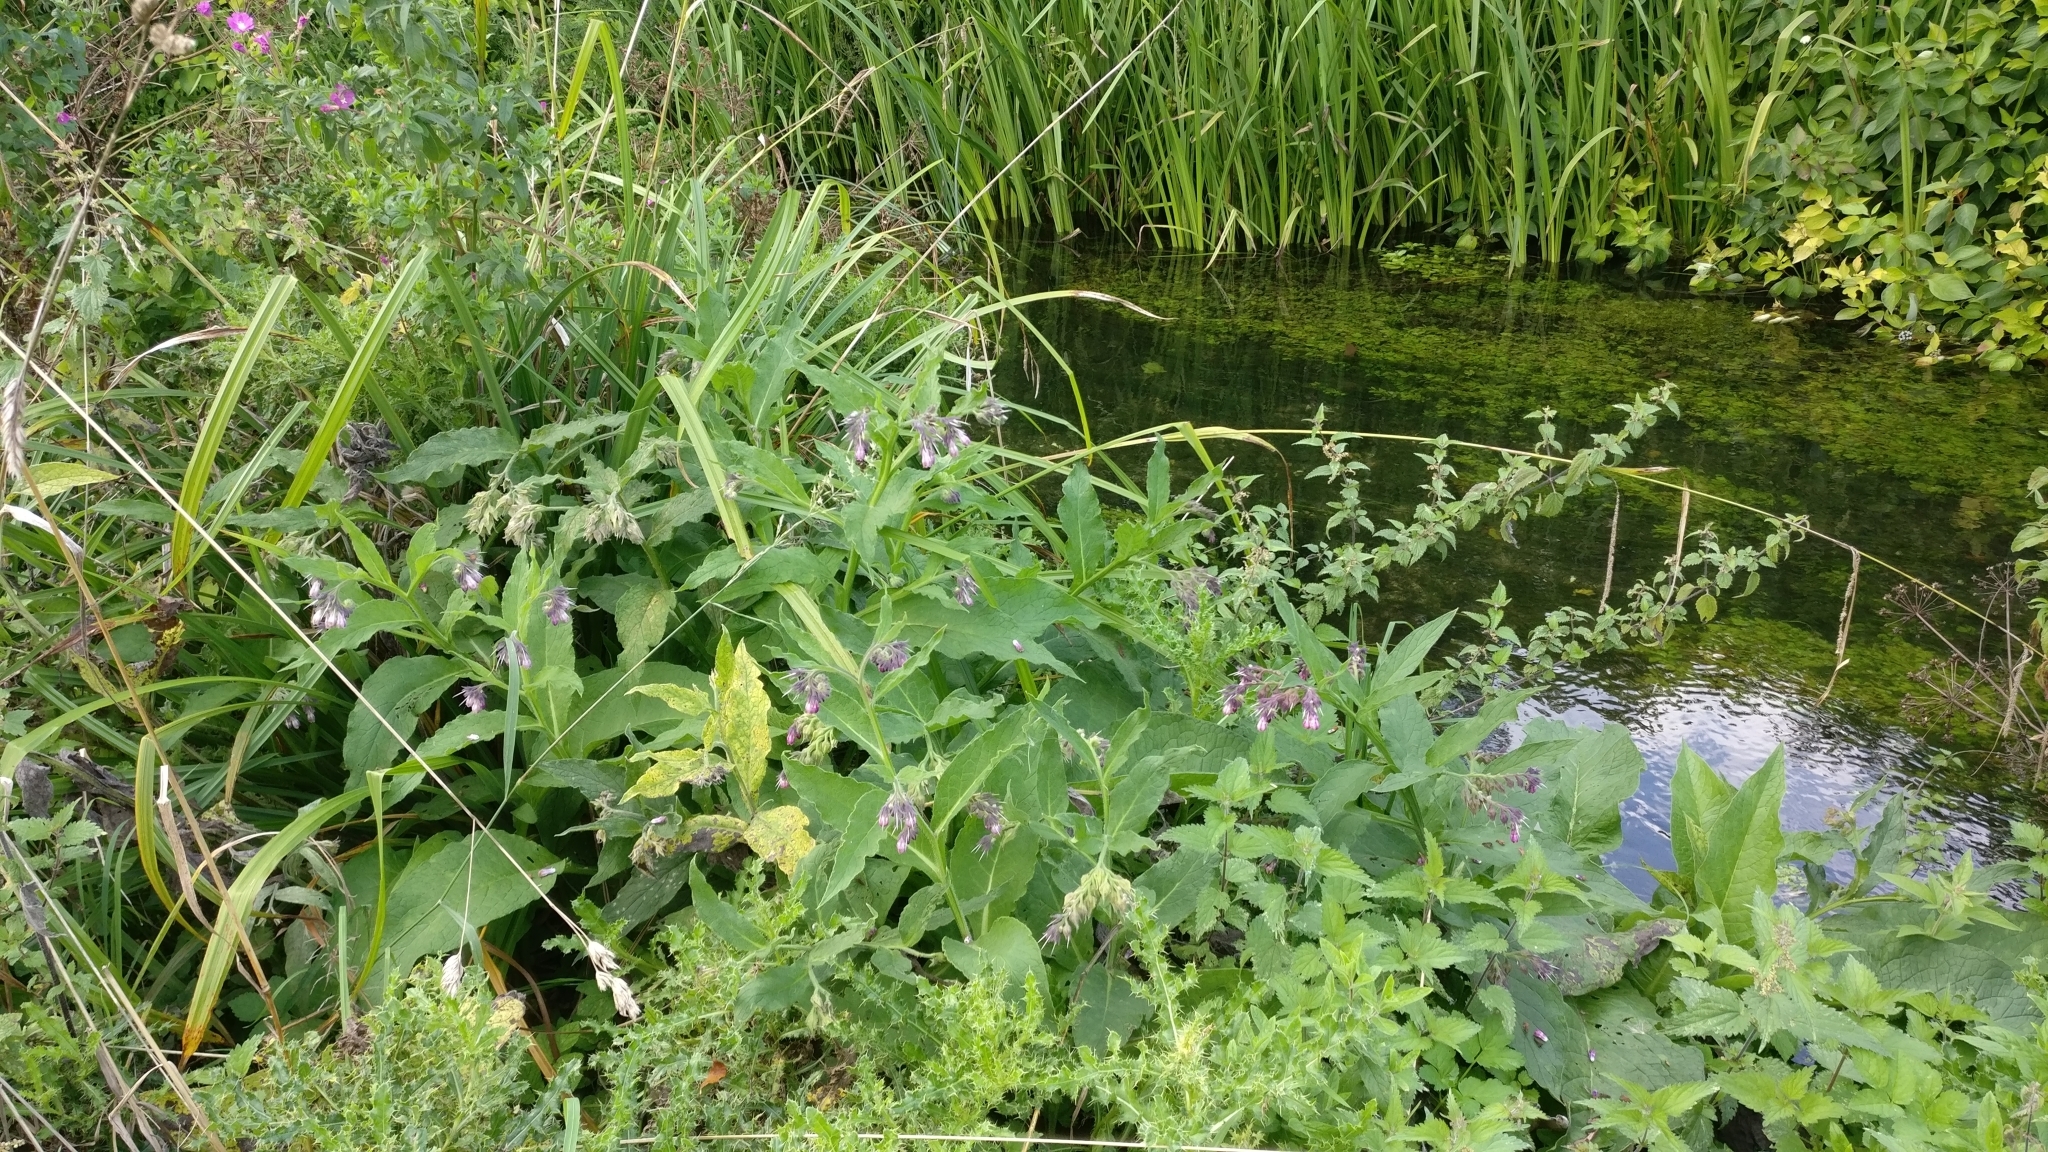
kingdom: Plantae
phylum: Tracheophyta
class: Magnoliopsida
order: Boraginales
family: Boraginaceae
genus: Symphytum
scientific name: Symphytum officinale
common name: Common comfrey
